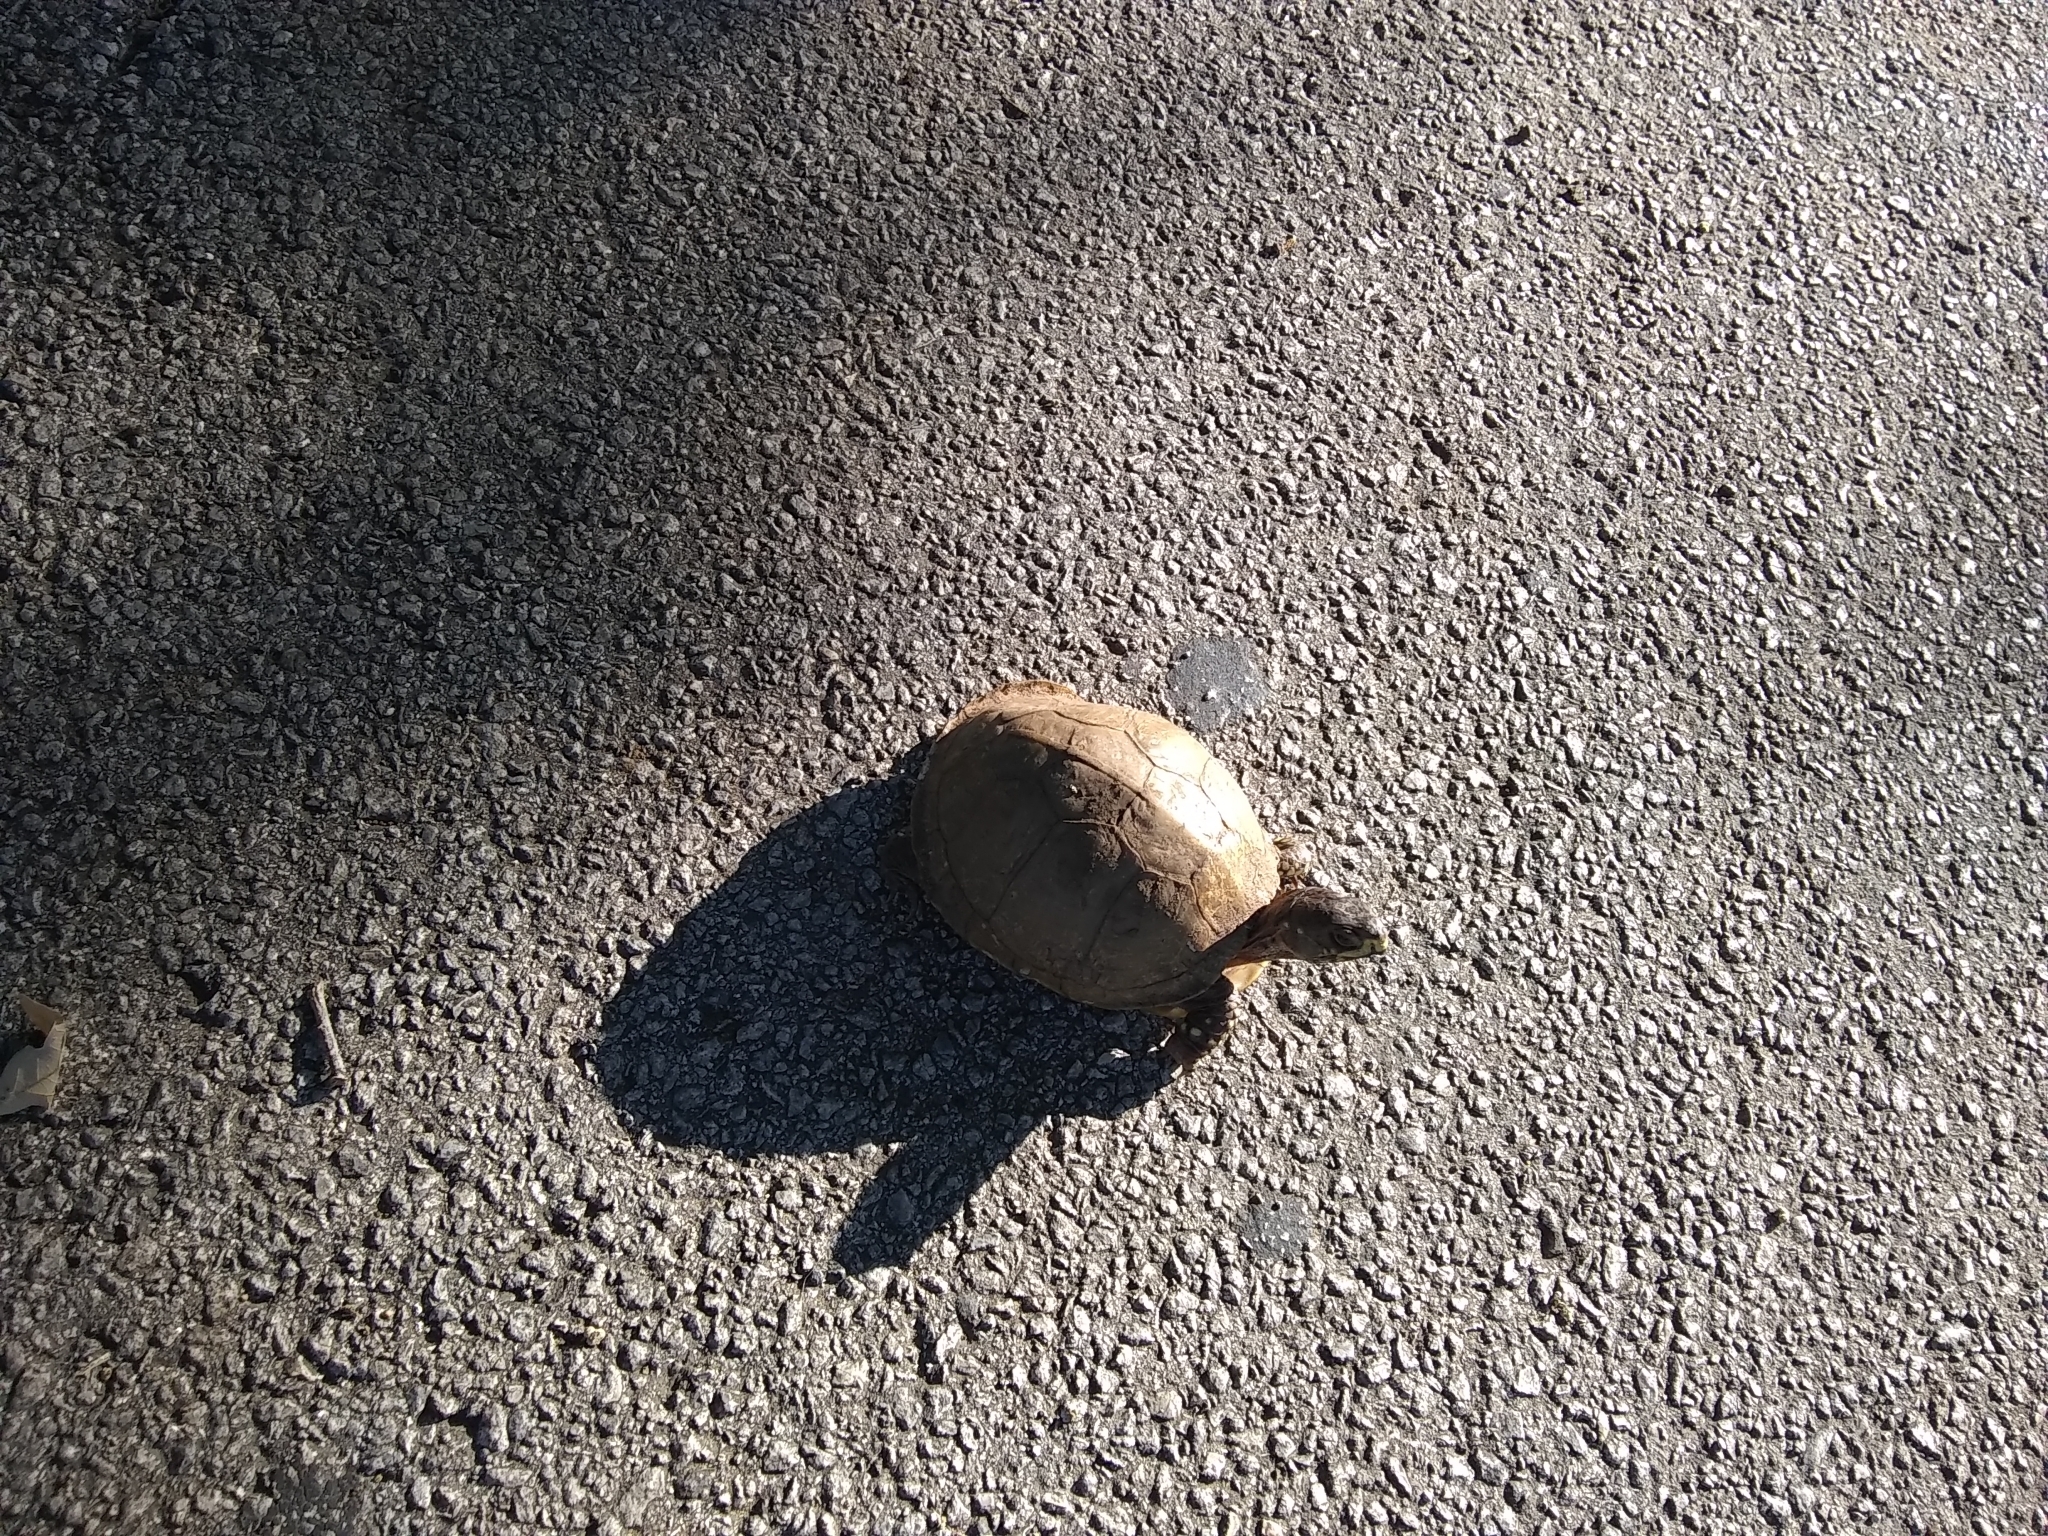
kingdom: Animalia
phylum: Chordata
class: Testudines
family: Emydidae
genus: Terrapene
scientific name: Terrapene carolina
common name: Common box turtle
